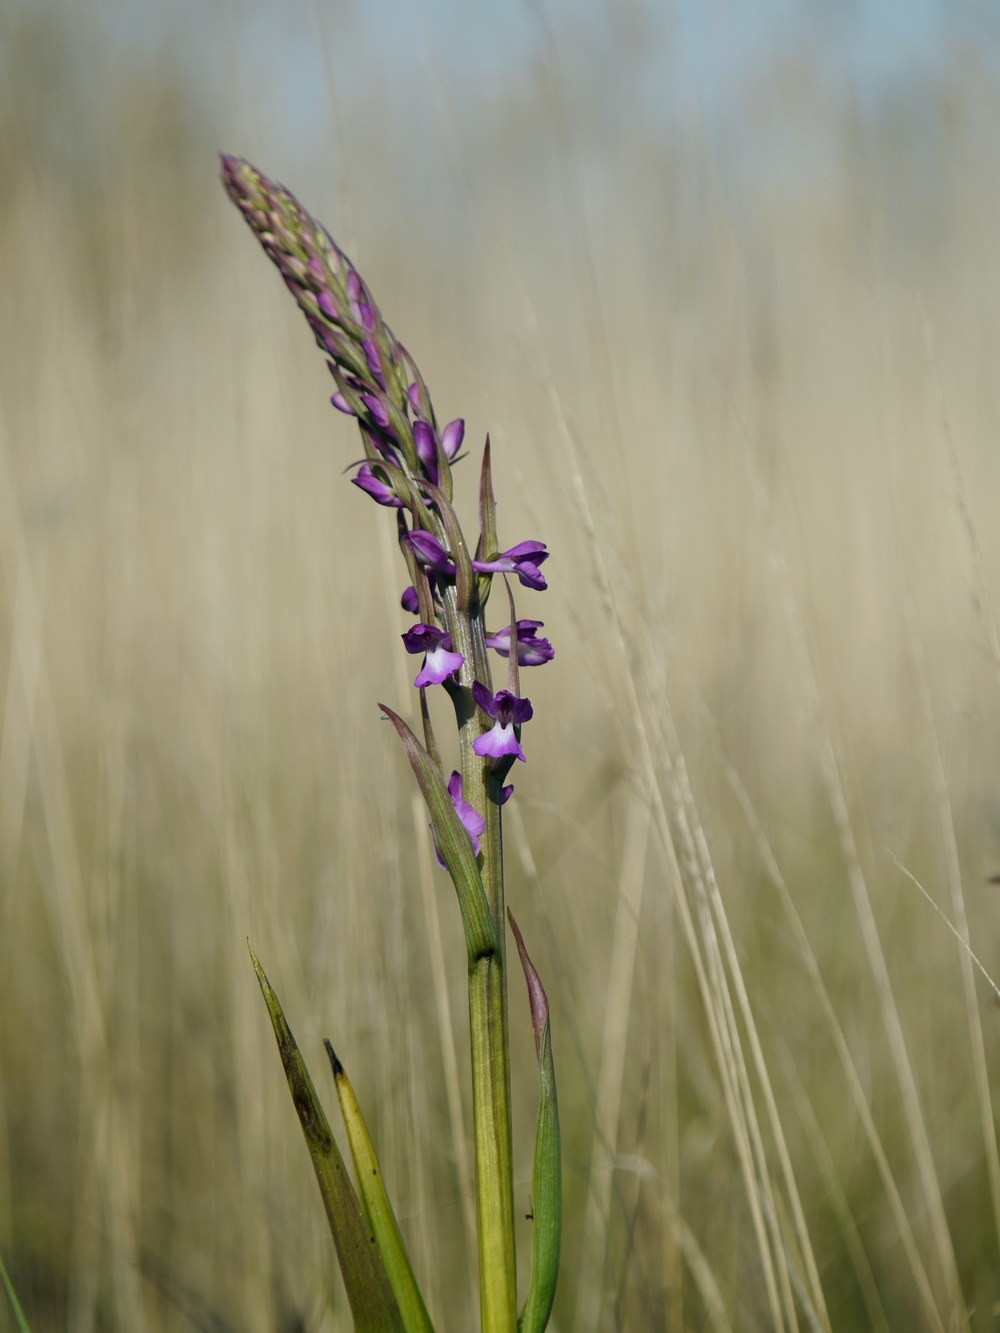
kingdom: Plantae
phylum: Tracheophyta
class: Liliopsida
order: Asparagales
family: Orchidaceae
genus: Anacamptis
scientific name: Anacamptis palustris
